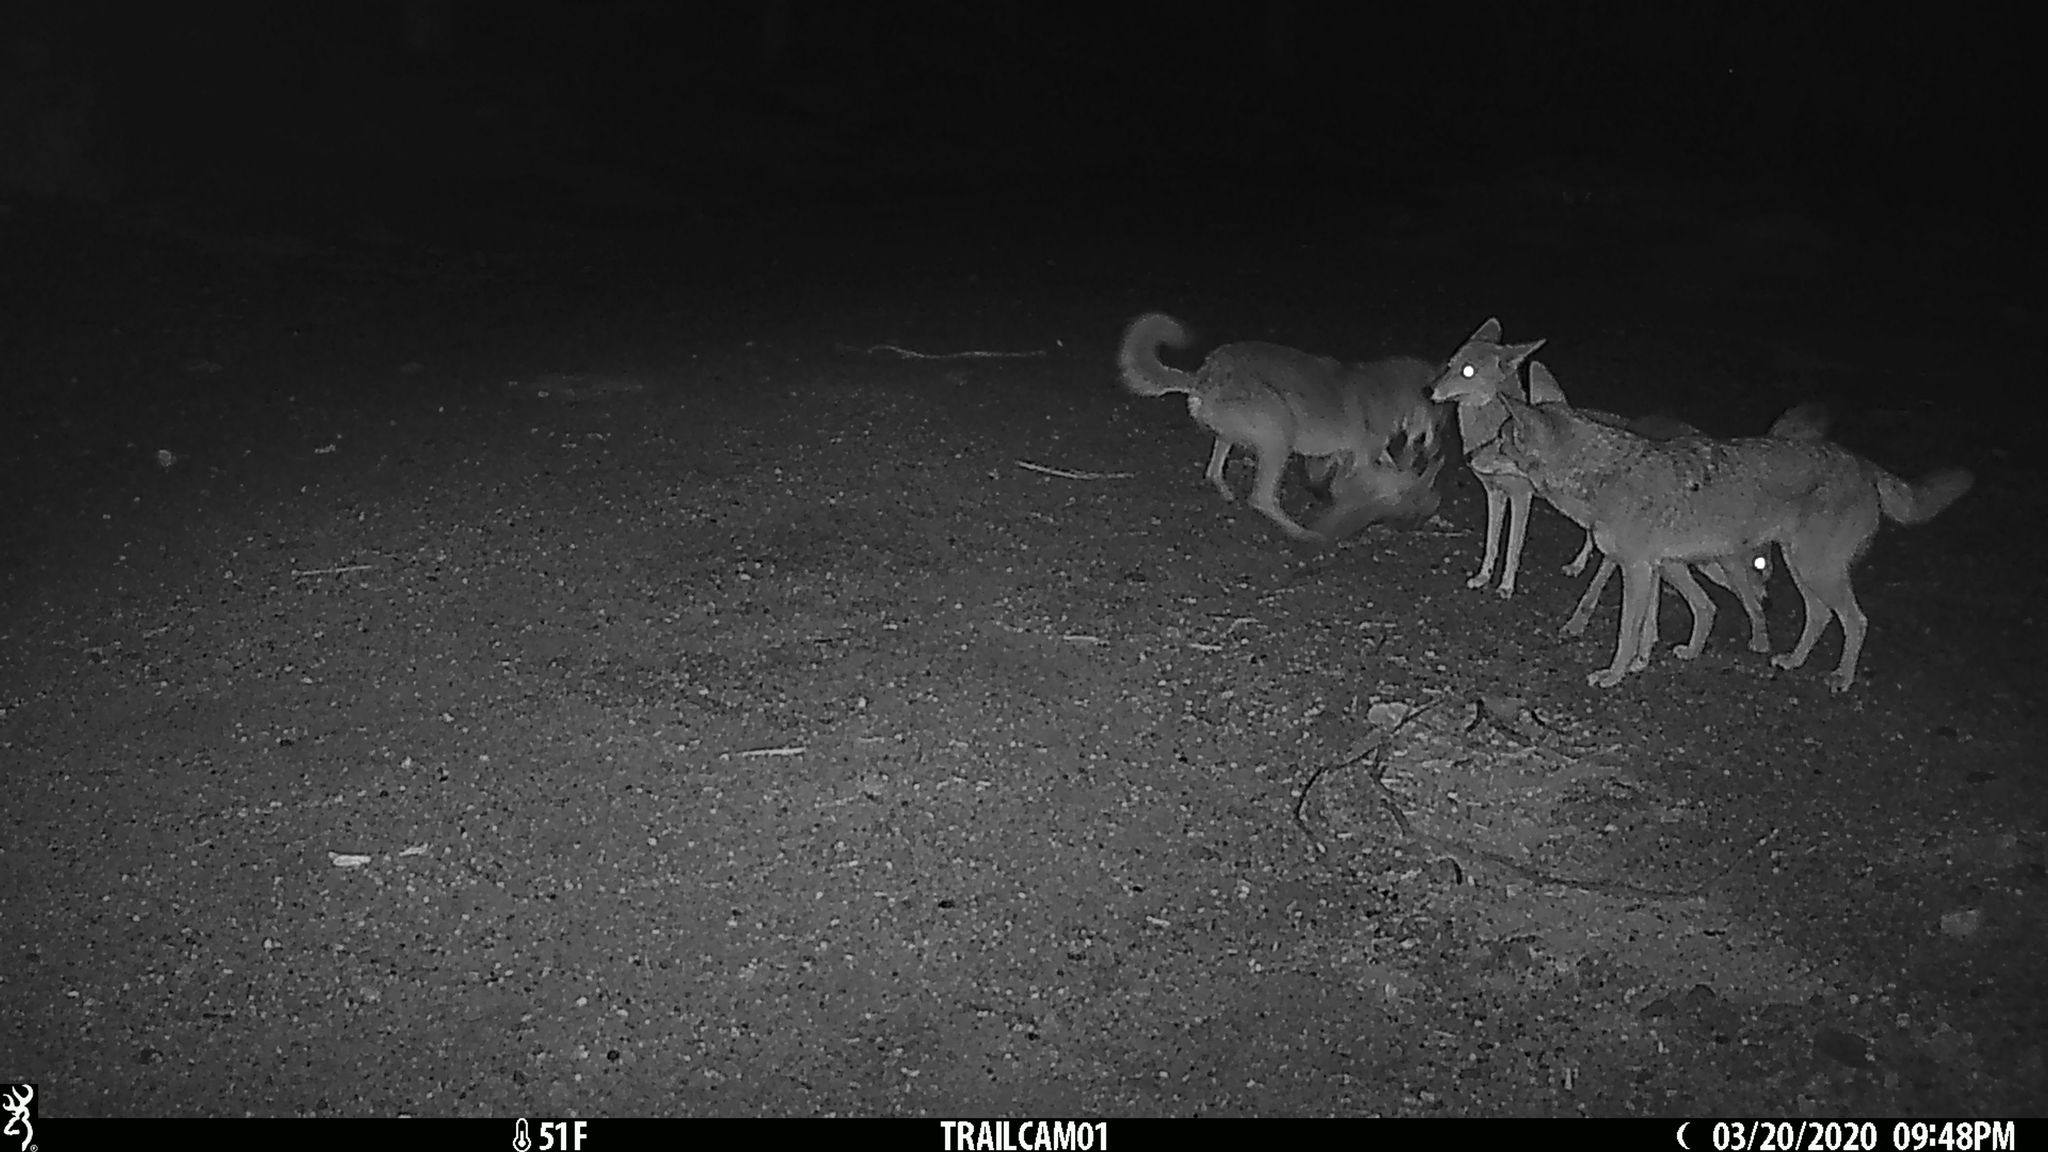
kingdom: Animalia
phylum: Chordata
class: Mammalia
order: Carnivora
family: Canidae
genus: Canis
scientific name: Canis latrans
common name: Coyote
